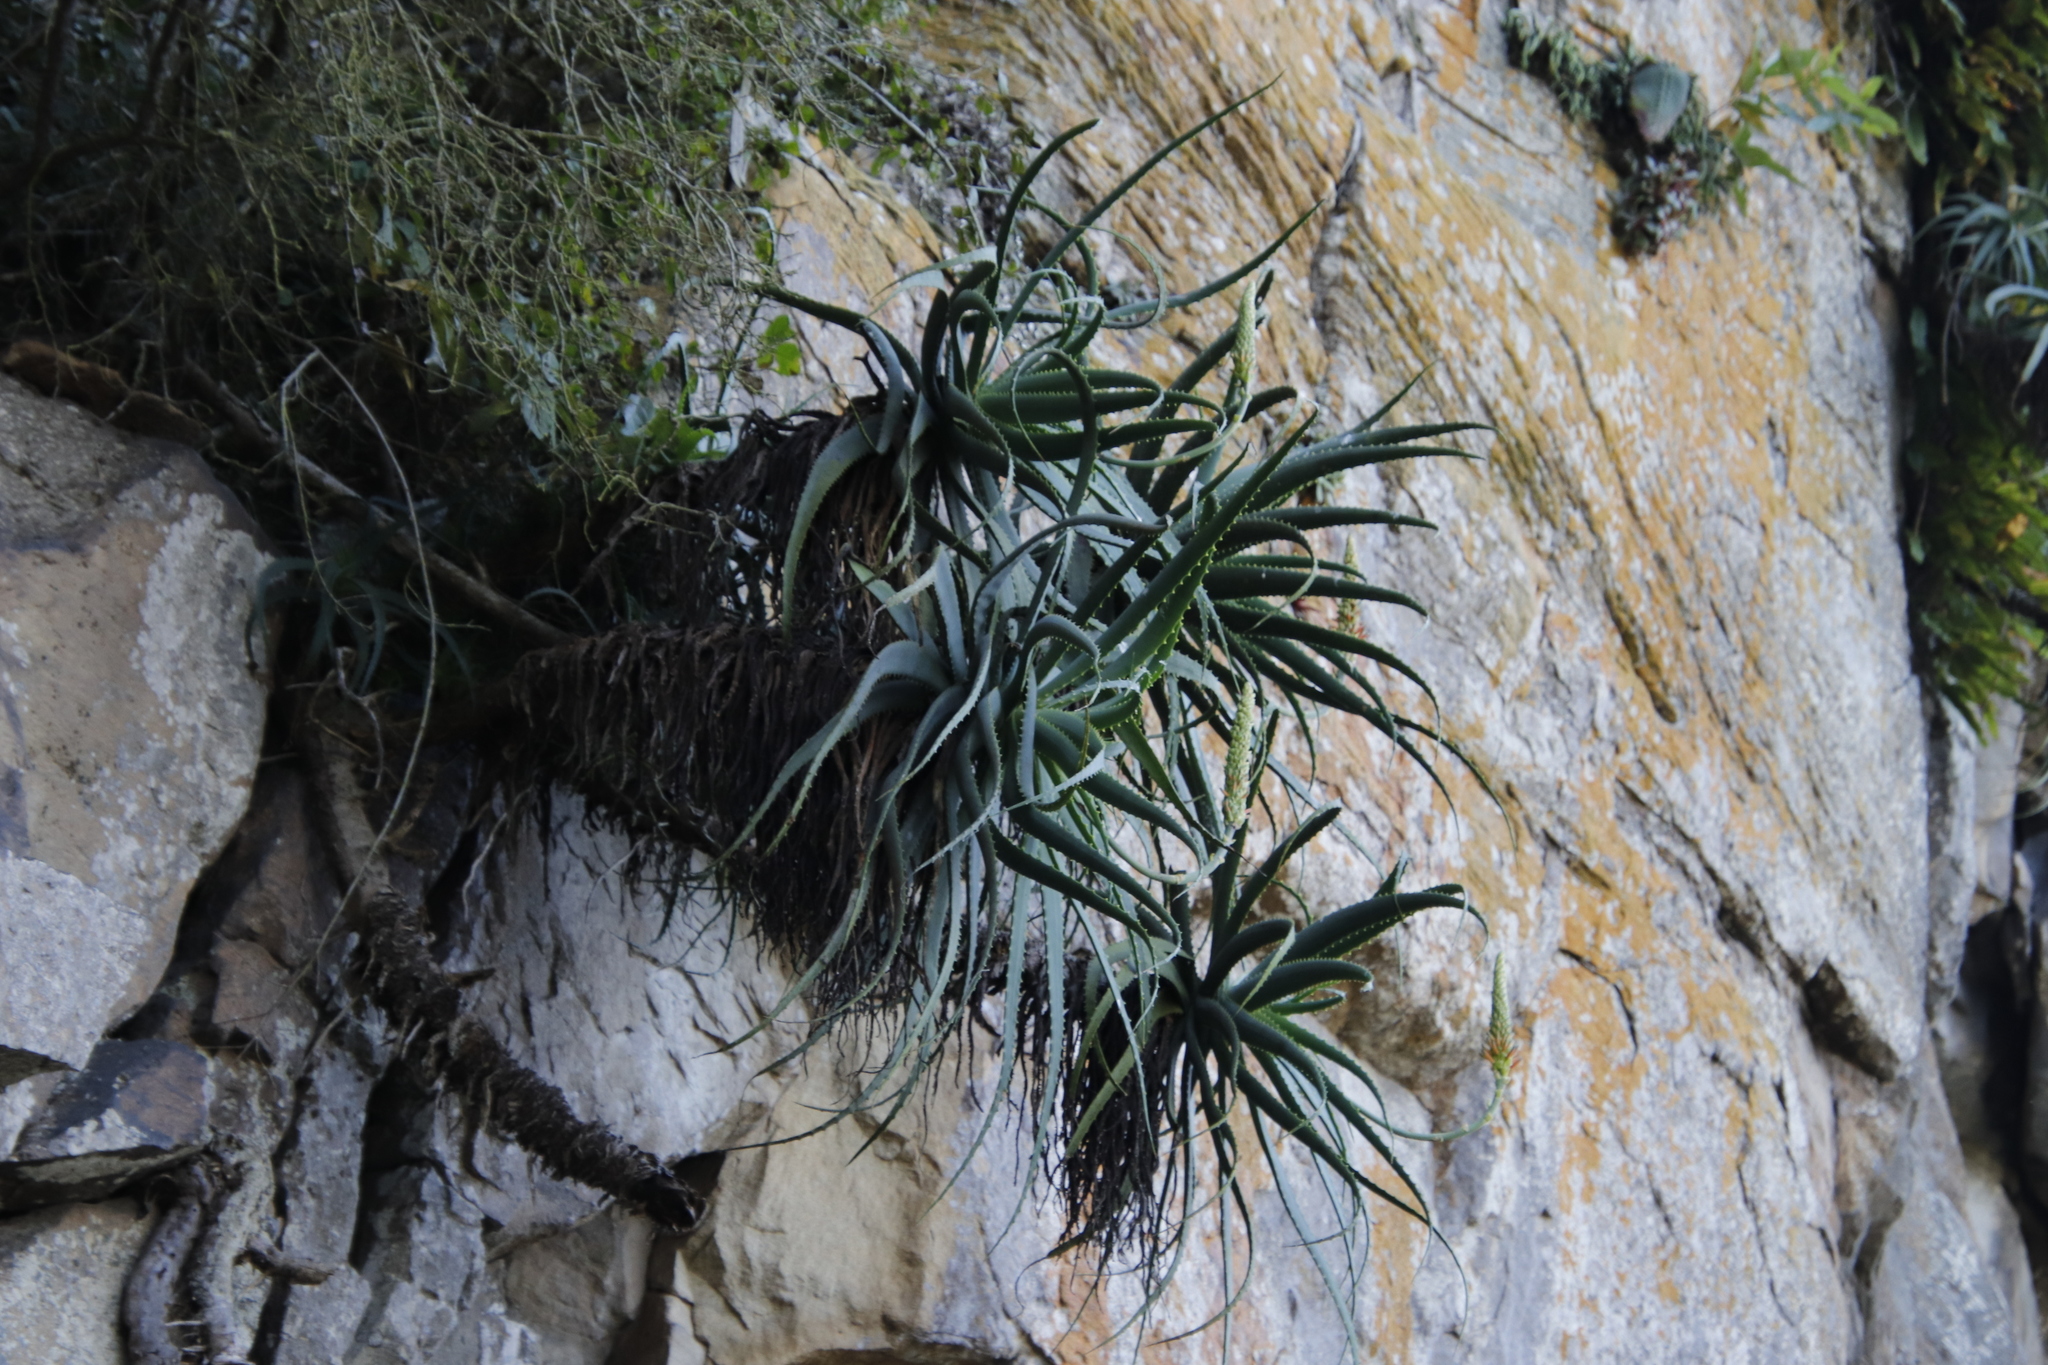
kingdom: Plantae
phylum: Tracheophyta
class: Liliopsida
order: Asparagales
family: Asphodelaceae
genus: Aloe
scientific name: Aloe arborescens
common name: Candelabra aloe
